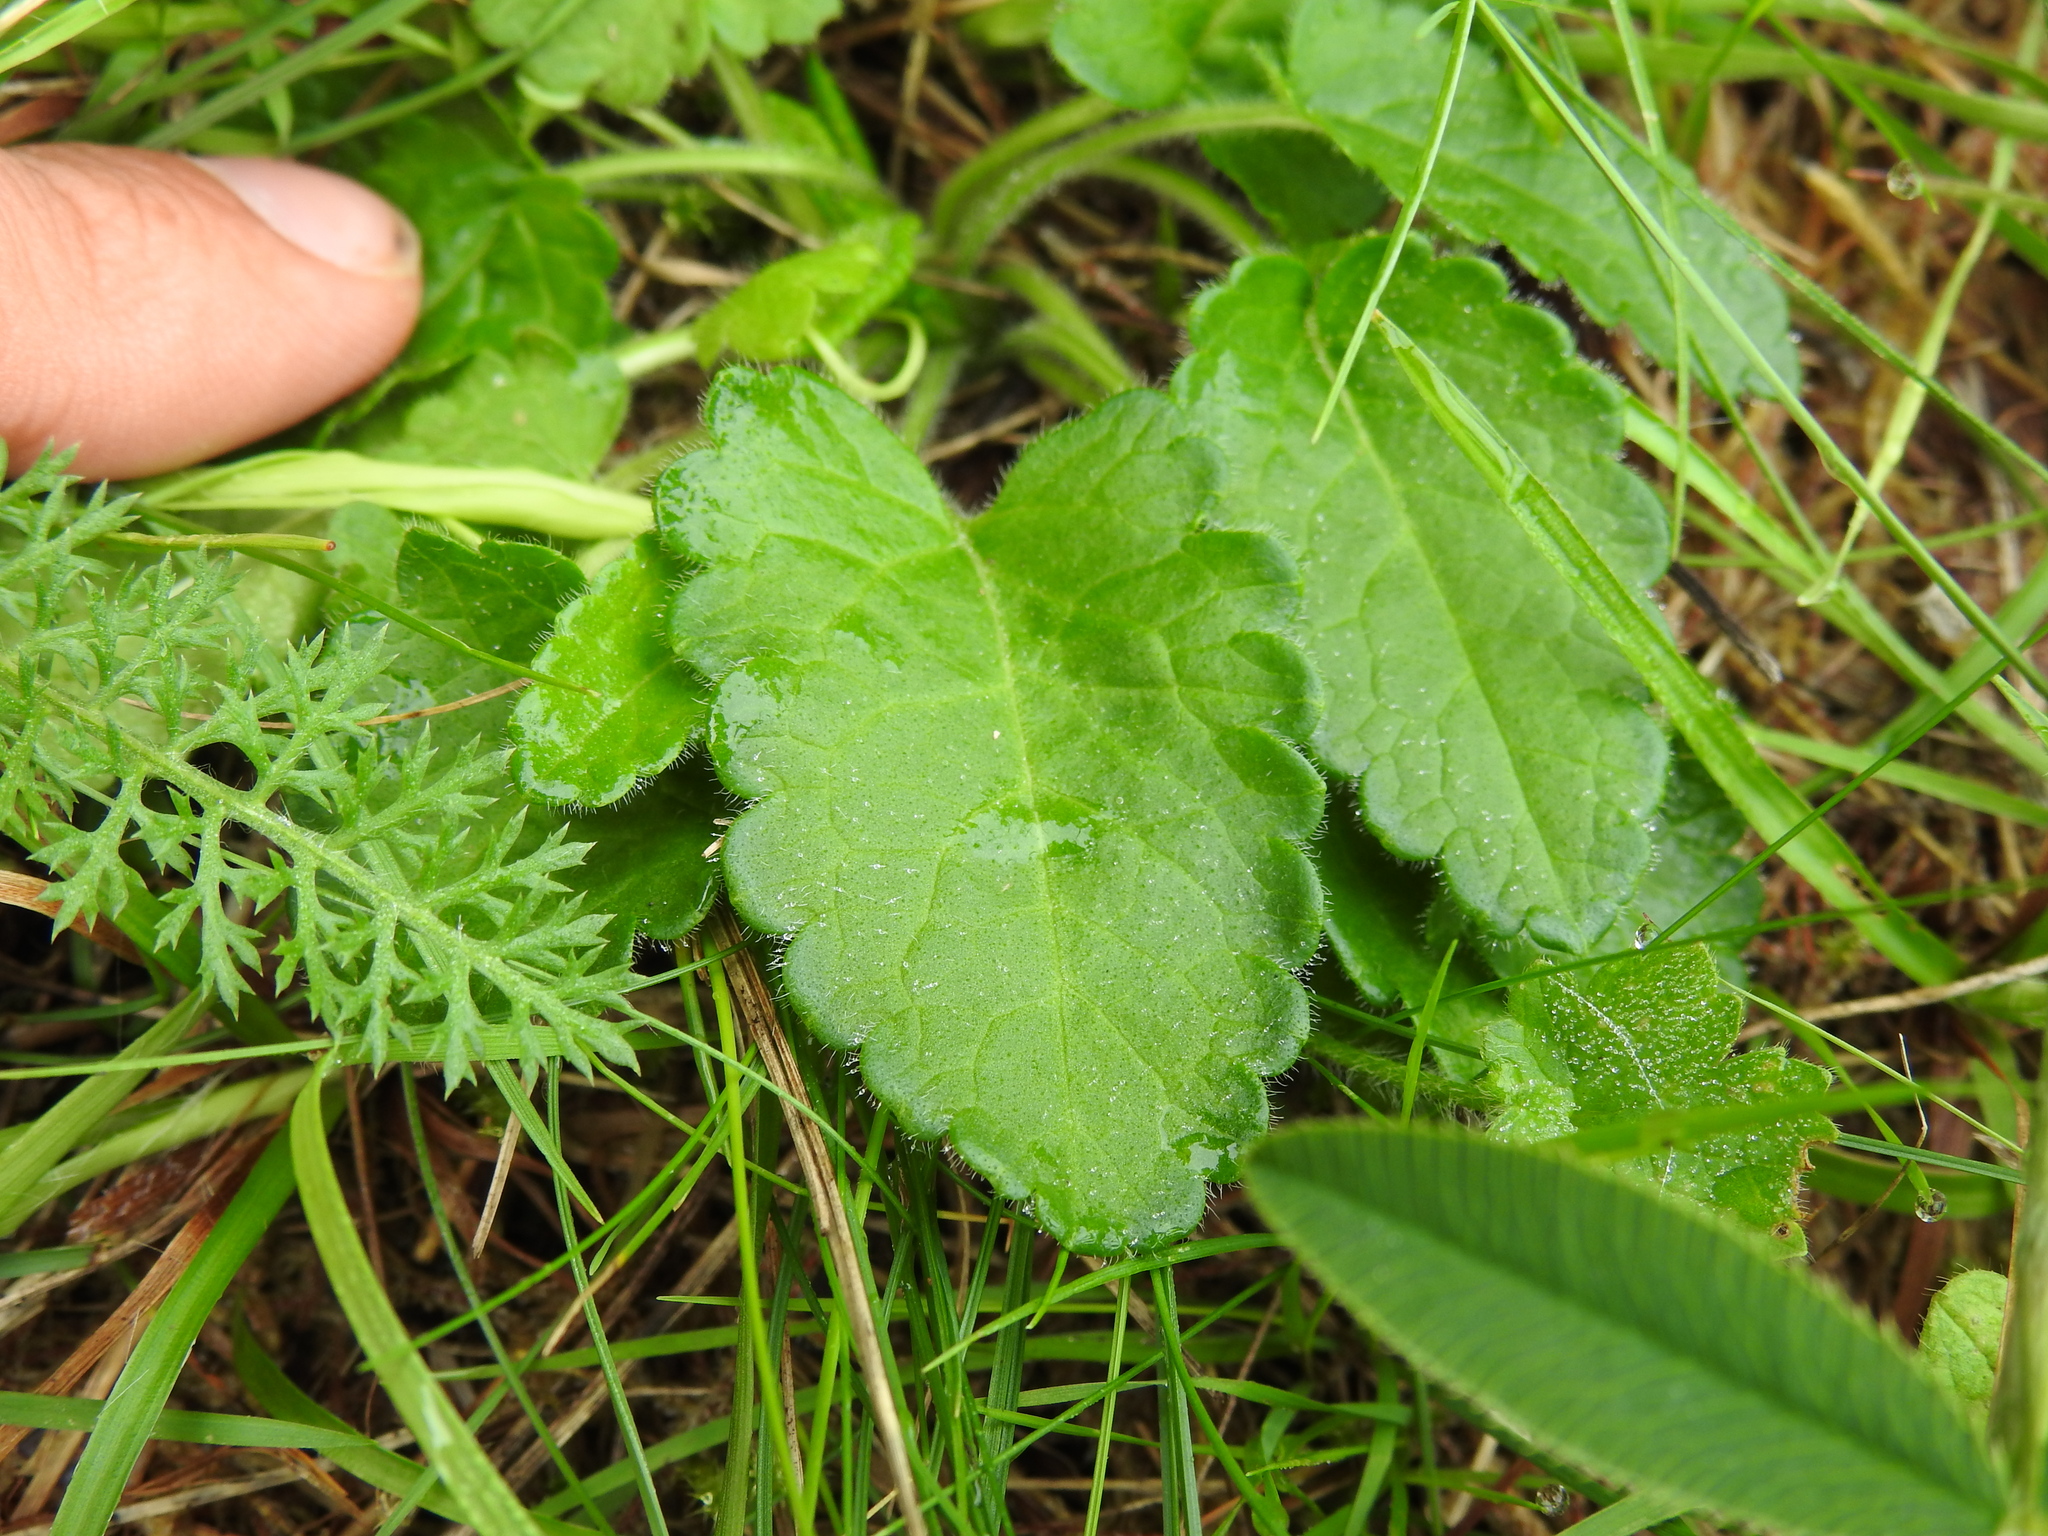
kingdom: Plantae
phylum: Tracheophyta
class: Magnoliopsida
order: Lamiales
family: Lamiaceae
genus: Betonica
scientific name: Betonica officinalis
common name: Bishop's-wort
